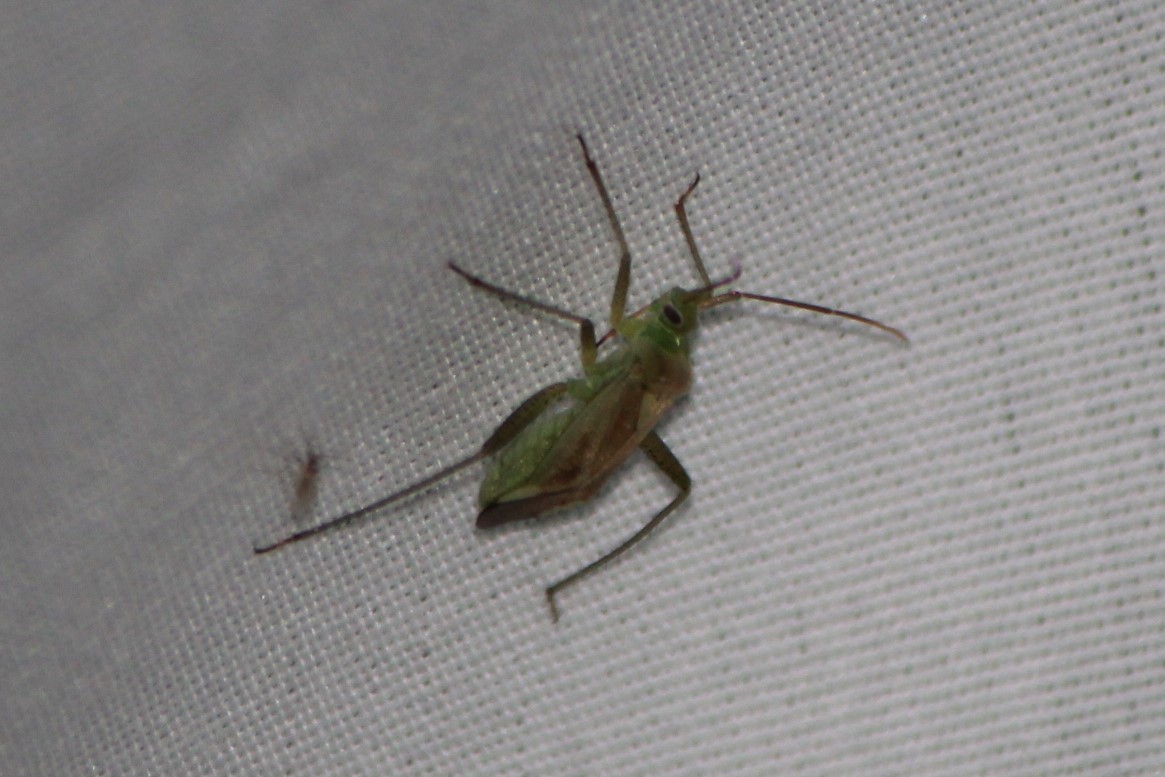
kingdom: Animalia
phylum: Arthropoda
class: Insecta
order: Hemiptera
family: Miridae
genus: Adelphocoris
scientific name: Adelphocoris lineolatus
